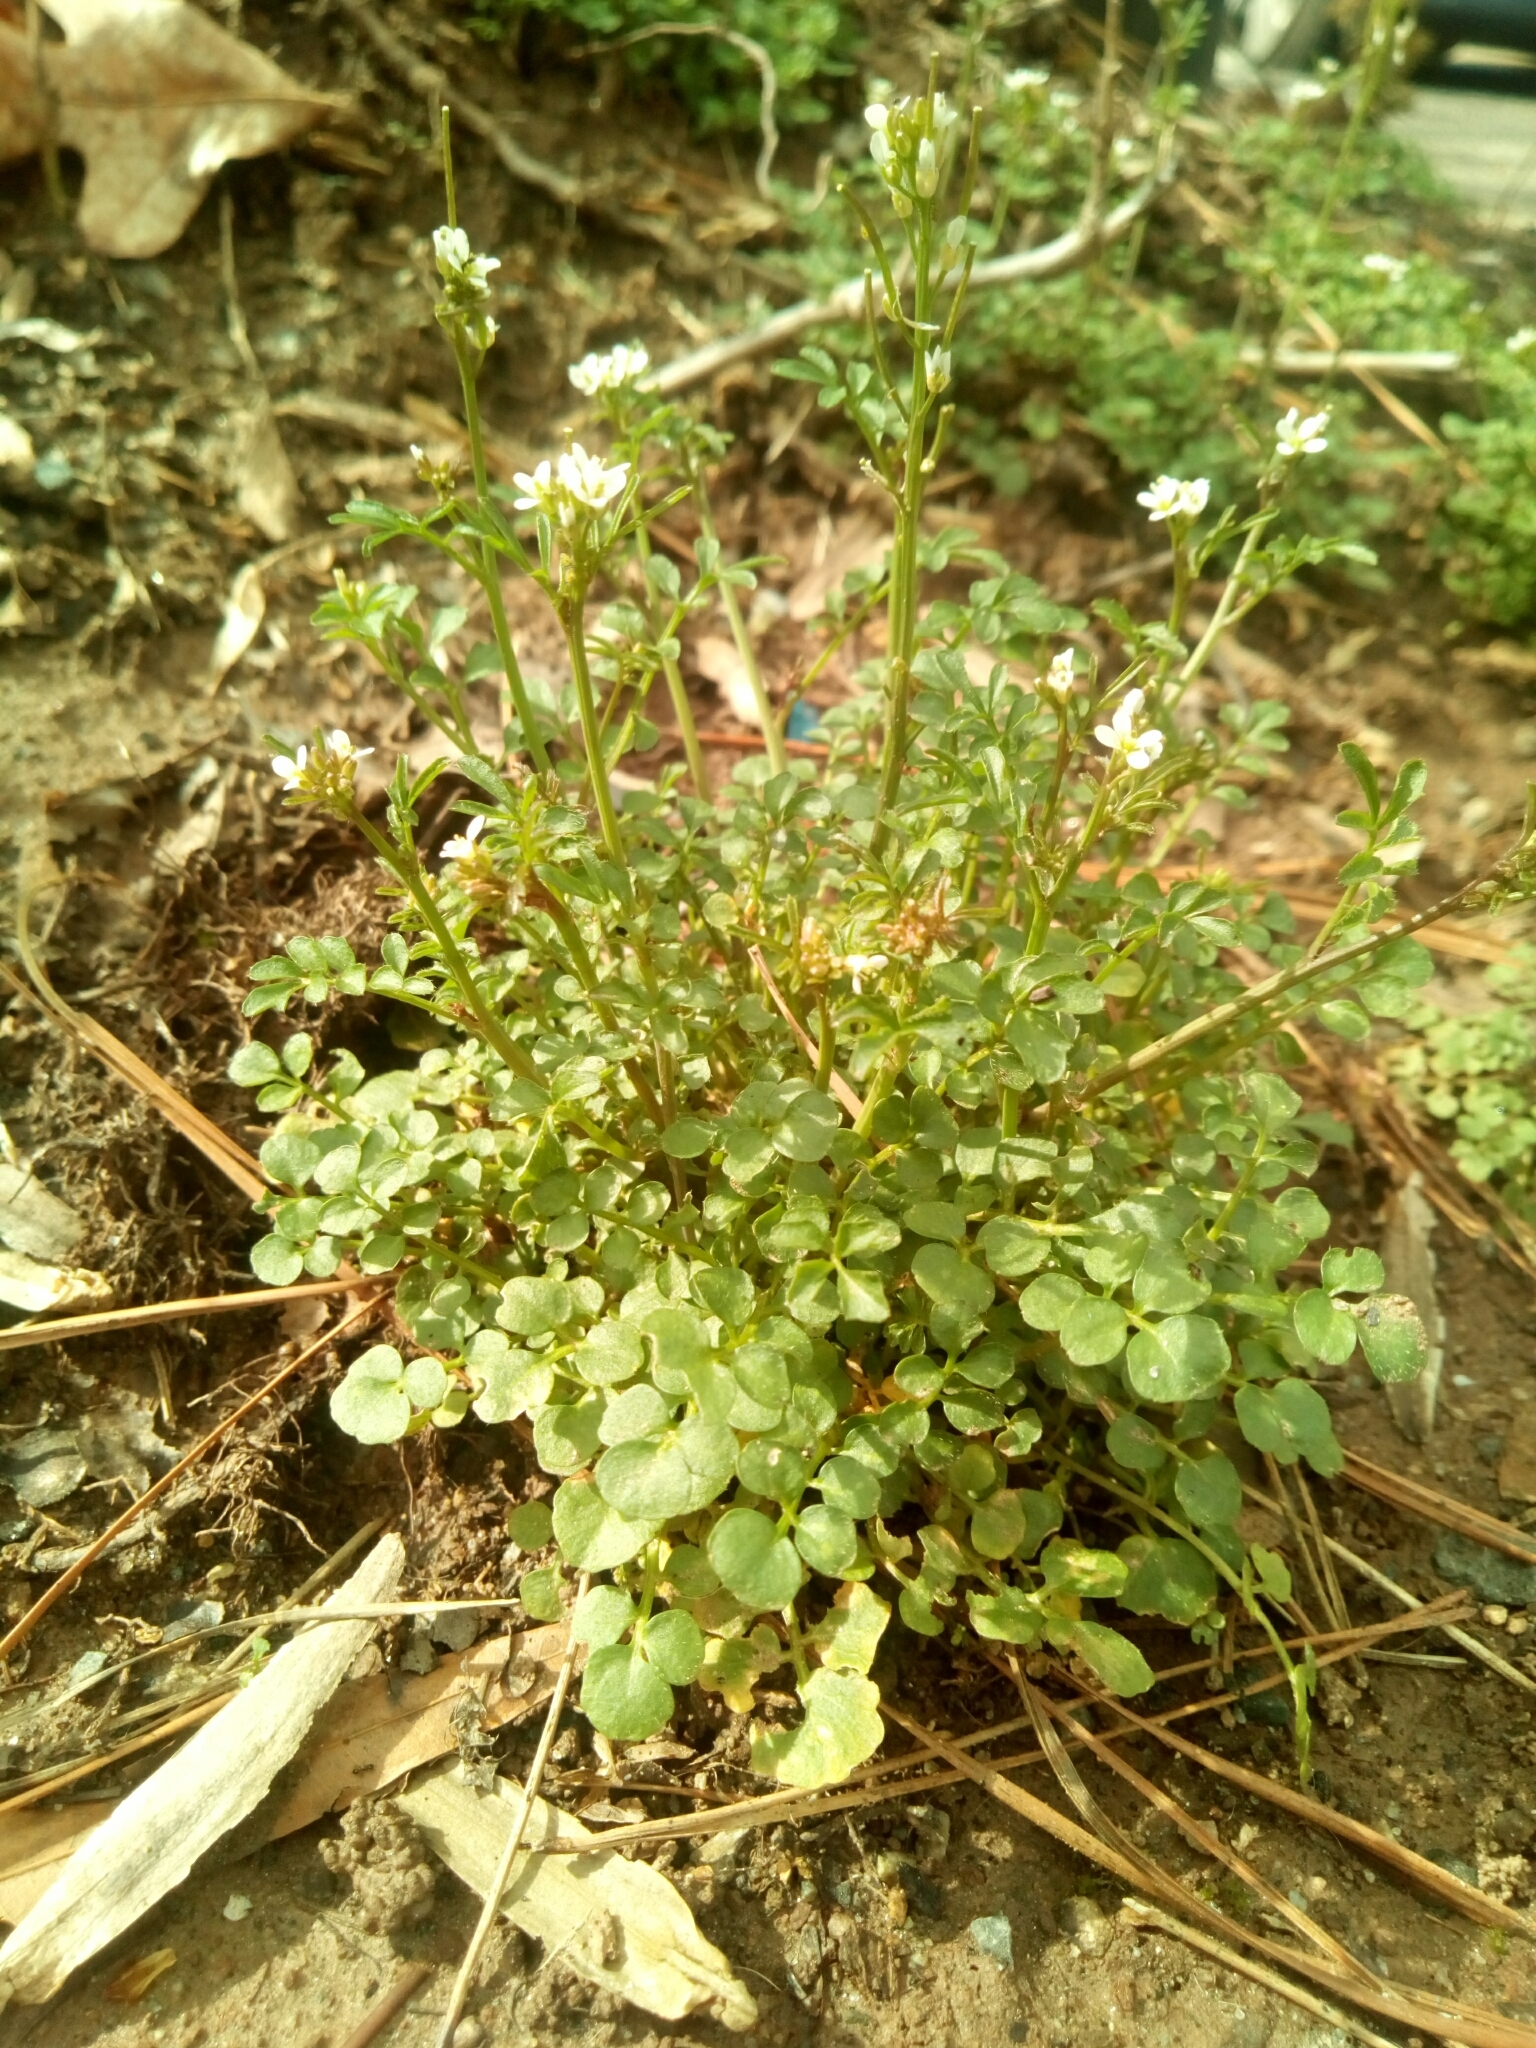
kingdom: Plantae
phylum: Tracheophyta
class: Magnoliopsida
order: Brassicales
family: Brassicaceae
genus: Cardamine
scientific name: Cardamine hirsuta
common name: Hairy bittercress
